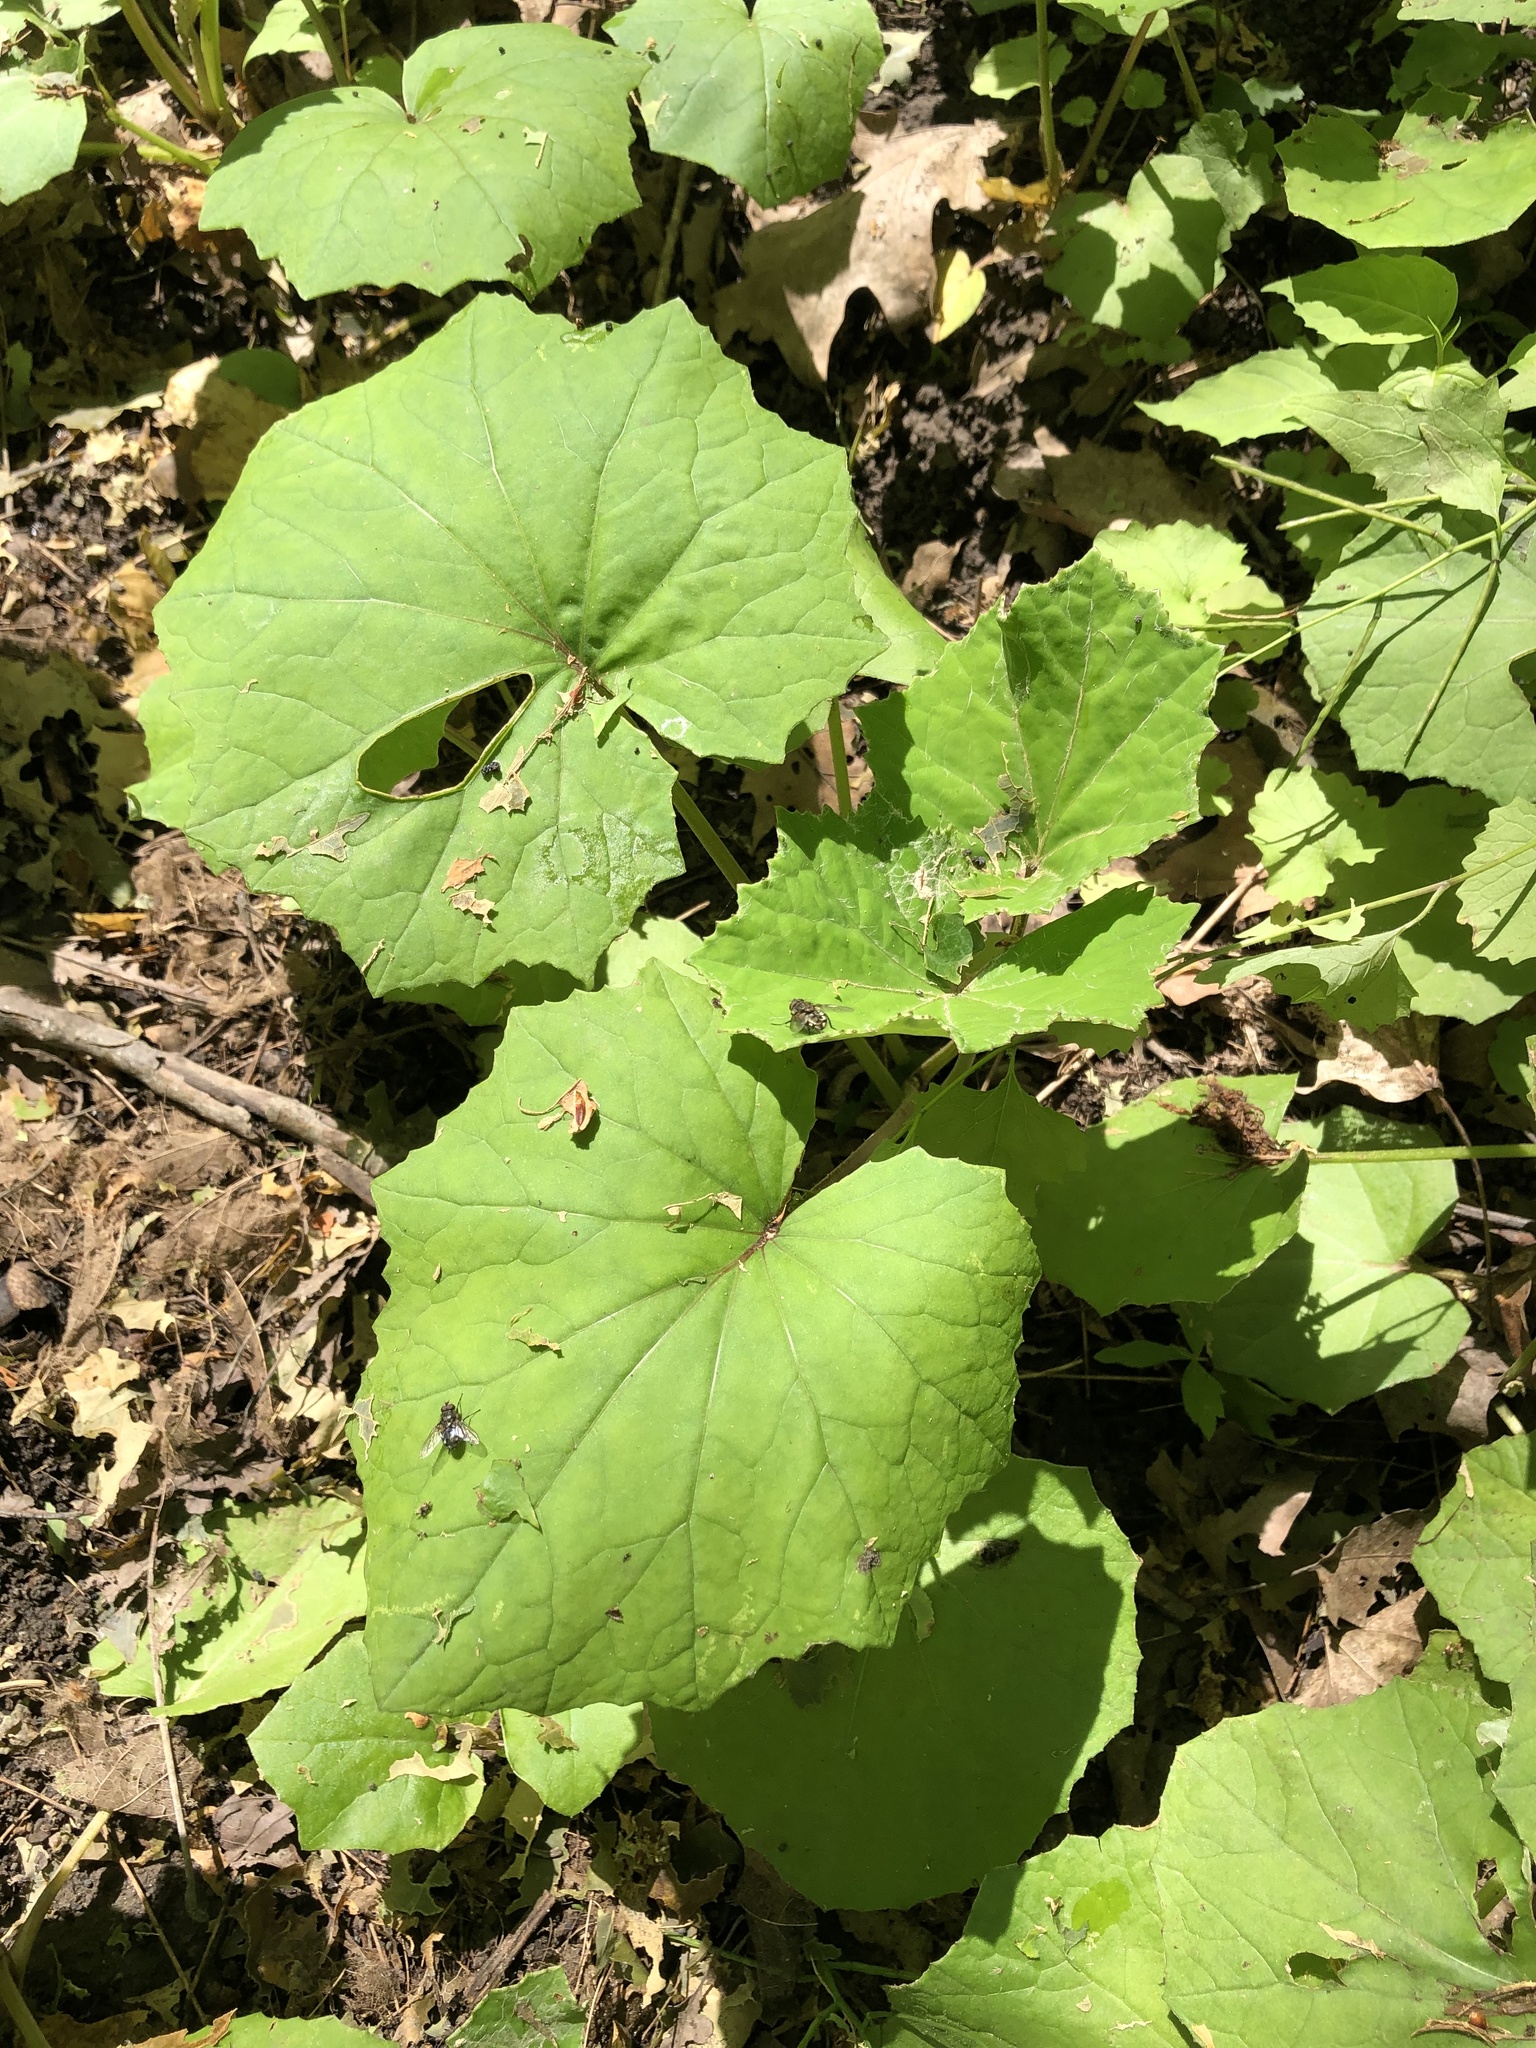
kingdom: Plantae
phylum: Tracheophyta
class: Magnoliopsida
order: Asterales
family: Asteraceae
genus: Tussilago
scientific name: Tussilago farfara
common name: Coltsfoot
